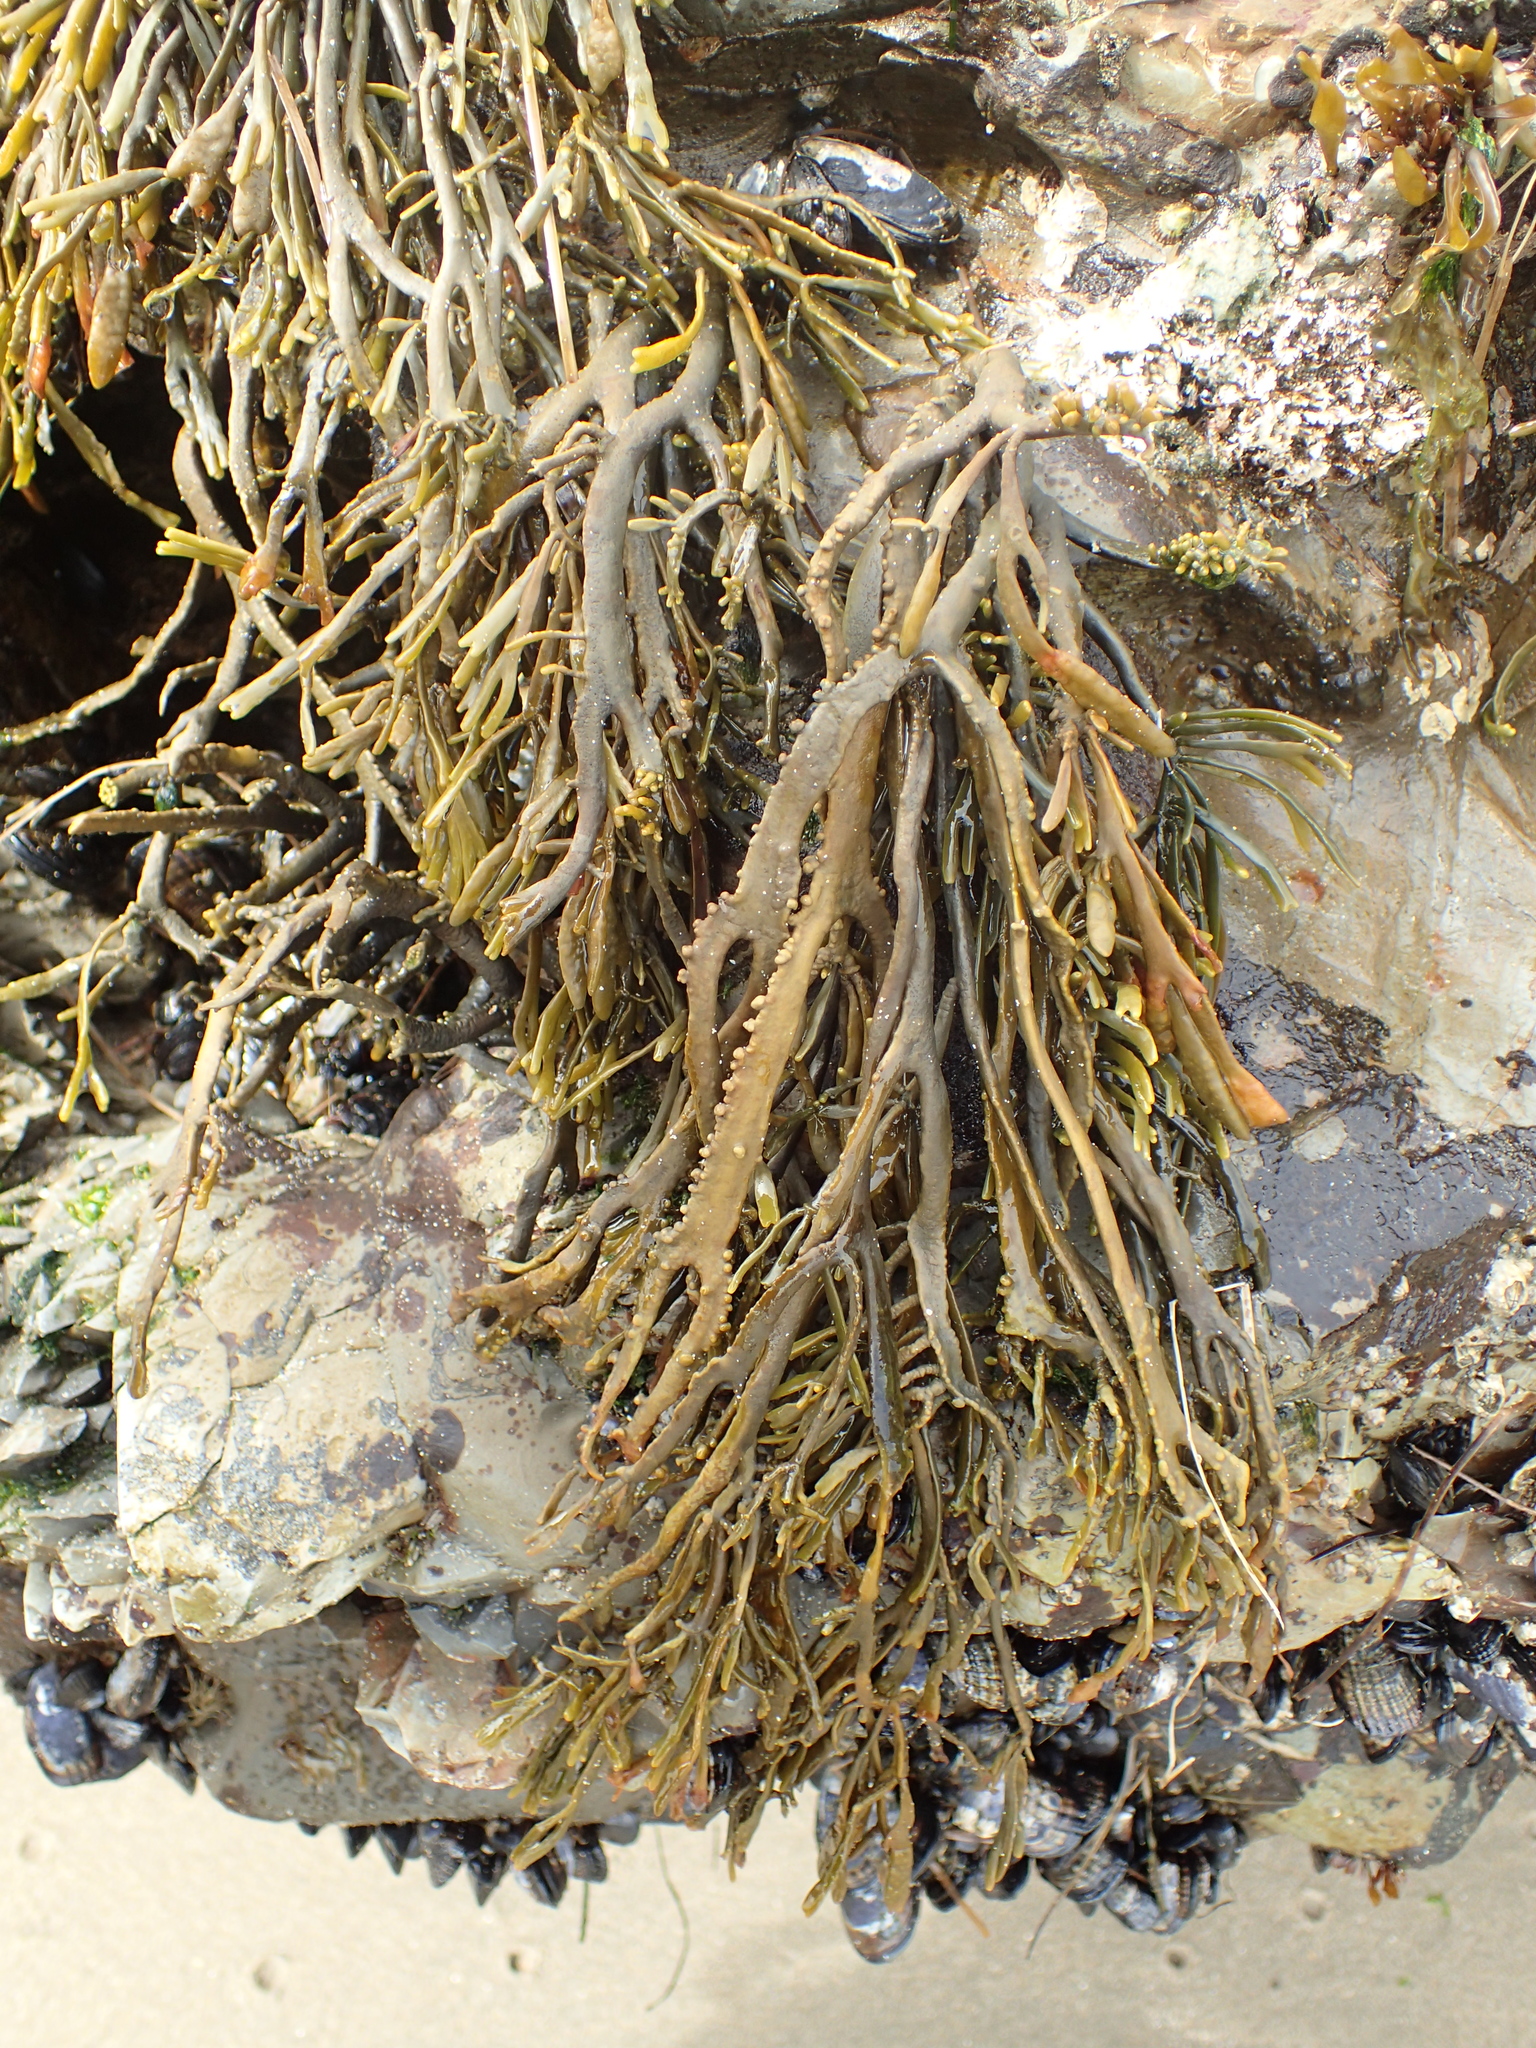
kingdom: Chromista
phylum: Ochrophyta
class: Phaeophyceae
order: Fucales
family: Fucaceae
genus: Silvetia
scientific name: Silvetia
